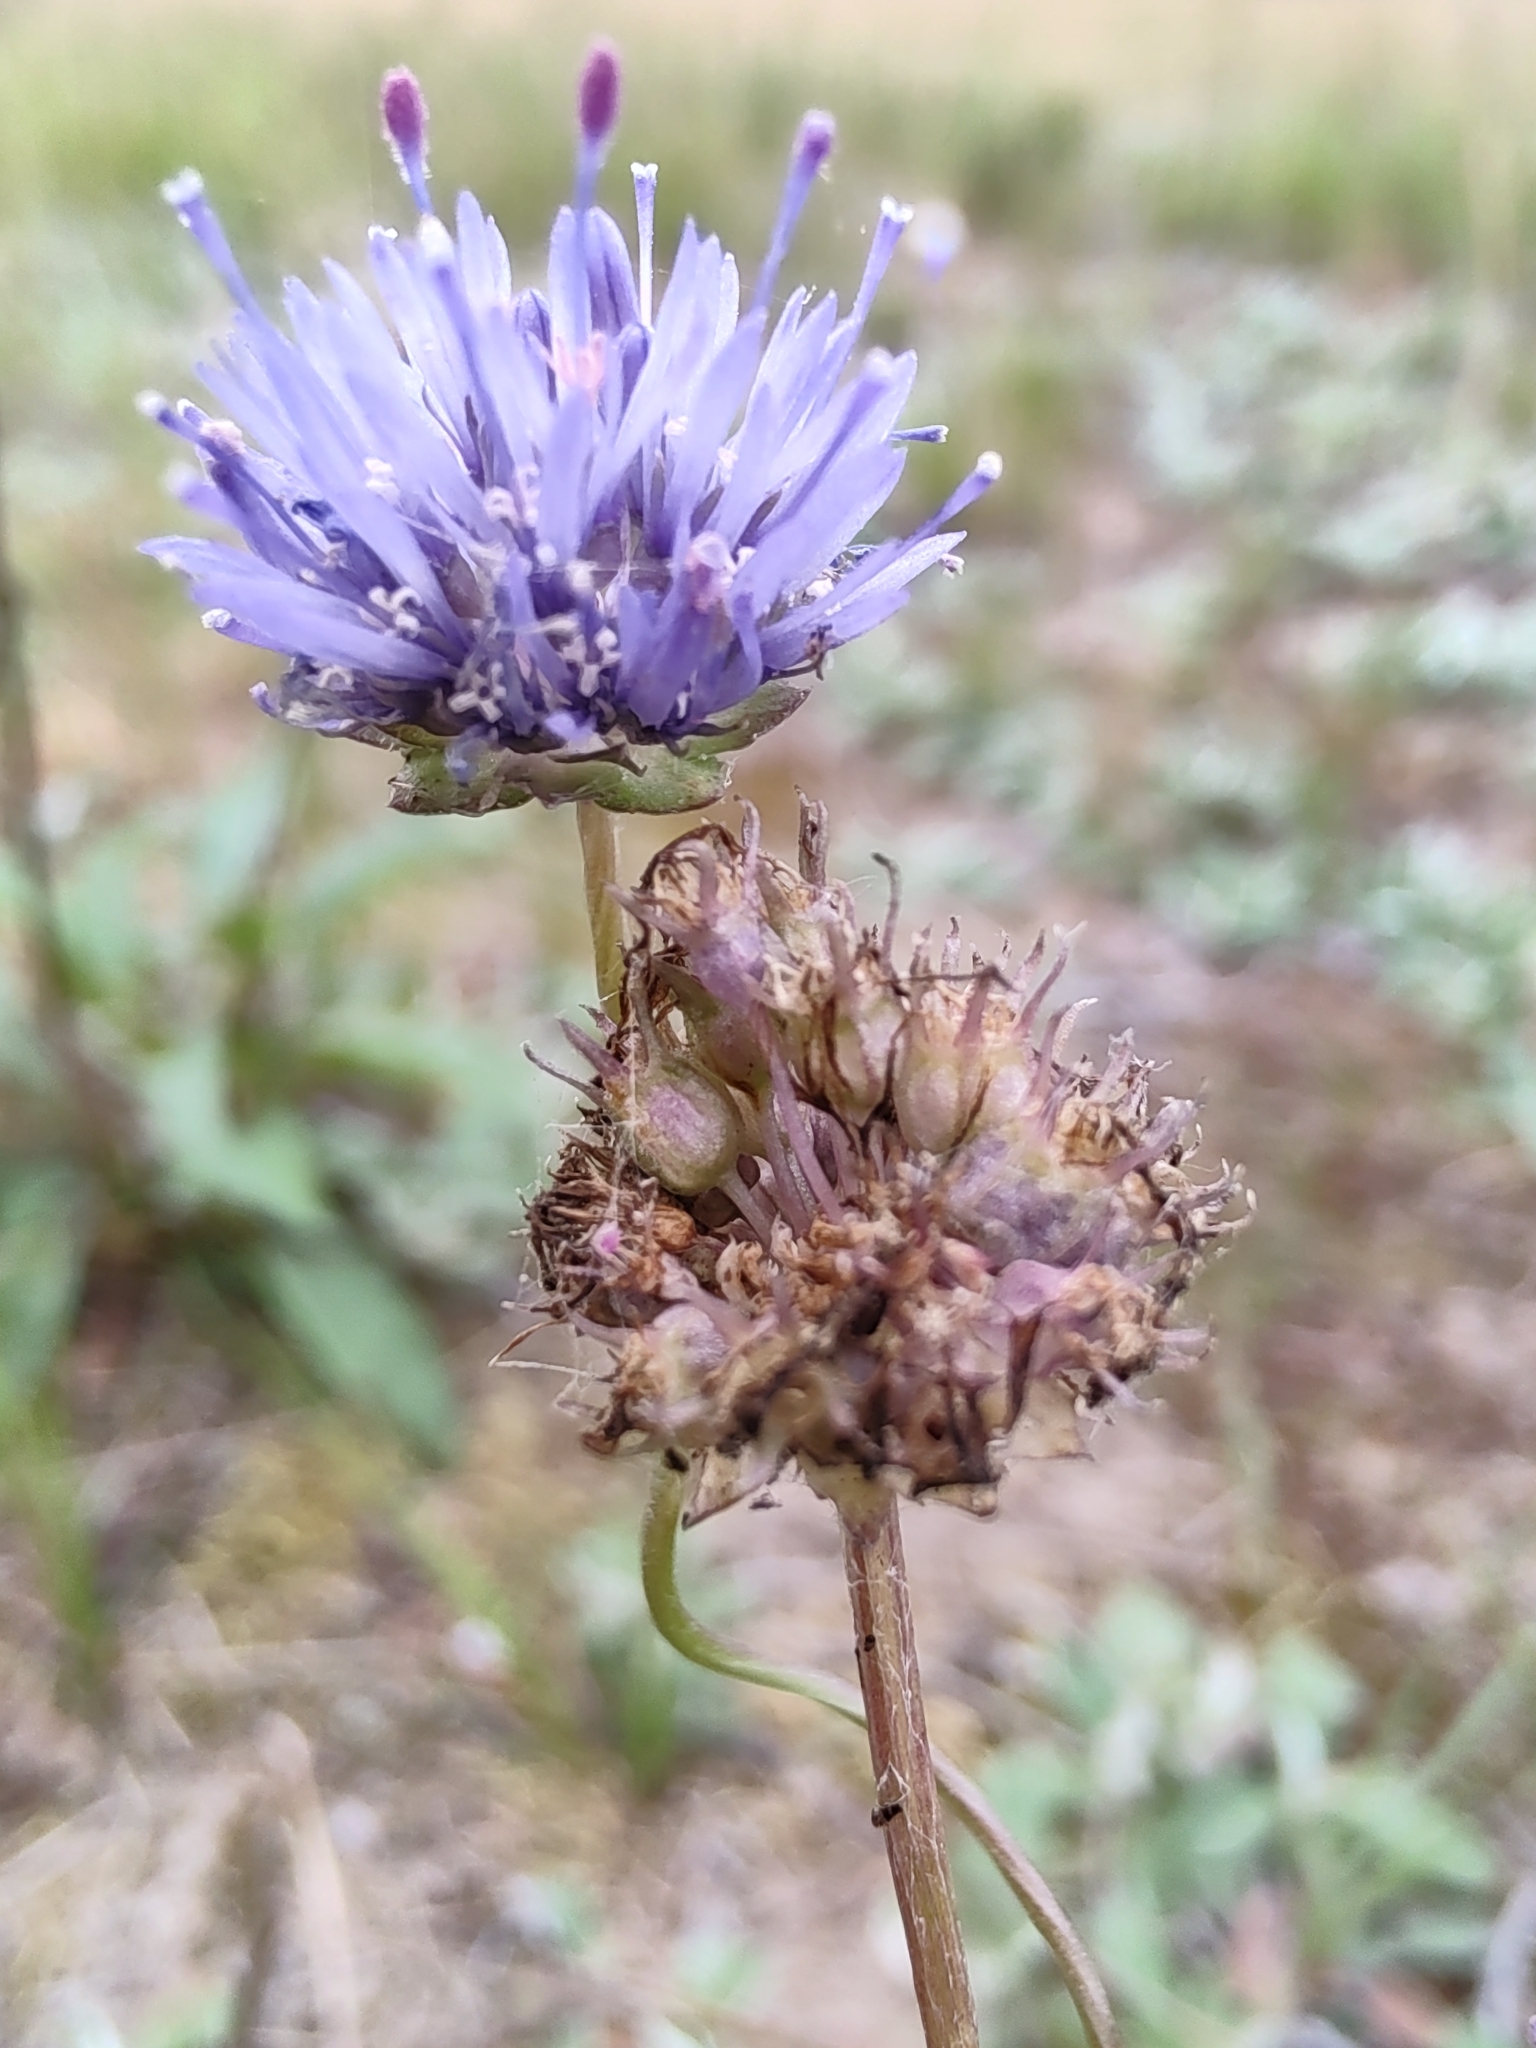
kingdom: Plantae
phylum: Tracheophyta
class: Magnoliopsida
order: Asterales
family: Campanulaceae
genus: Jasione
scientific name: Jasione montana
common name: Sheep's-bit
